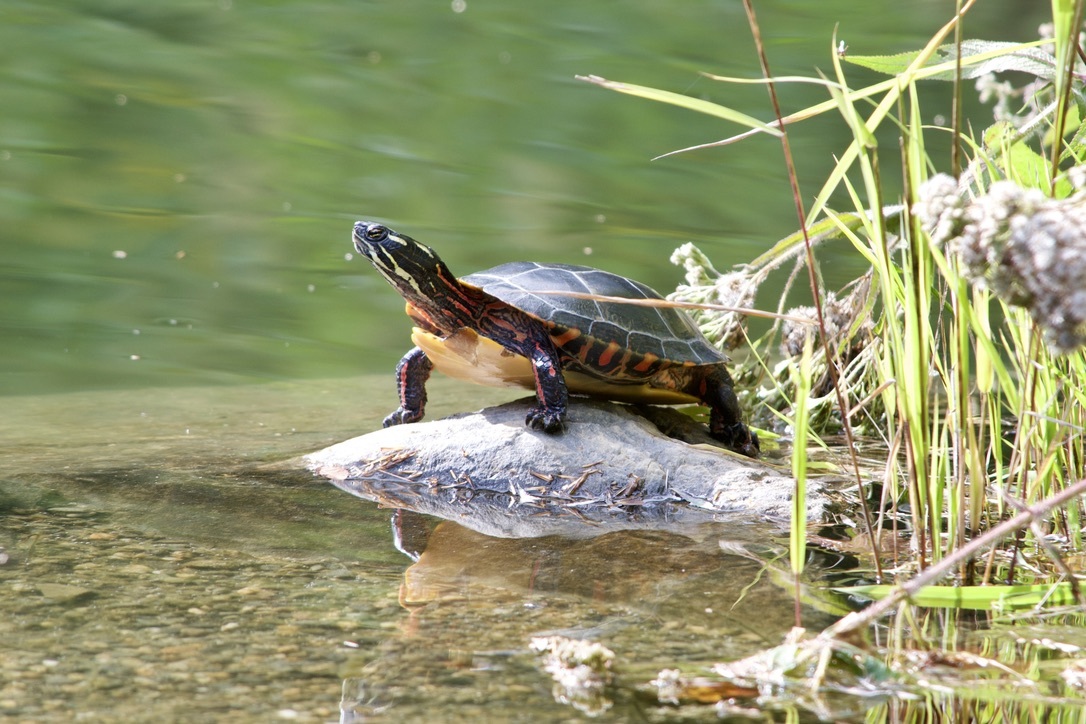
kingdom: Animalia
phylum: Chordata
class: Testudines
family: Emydidae
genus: Chrysemys
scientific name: Chrysemys picta
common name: Painted turtle
